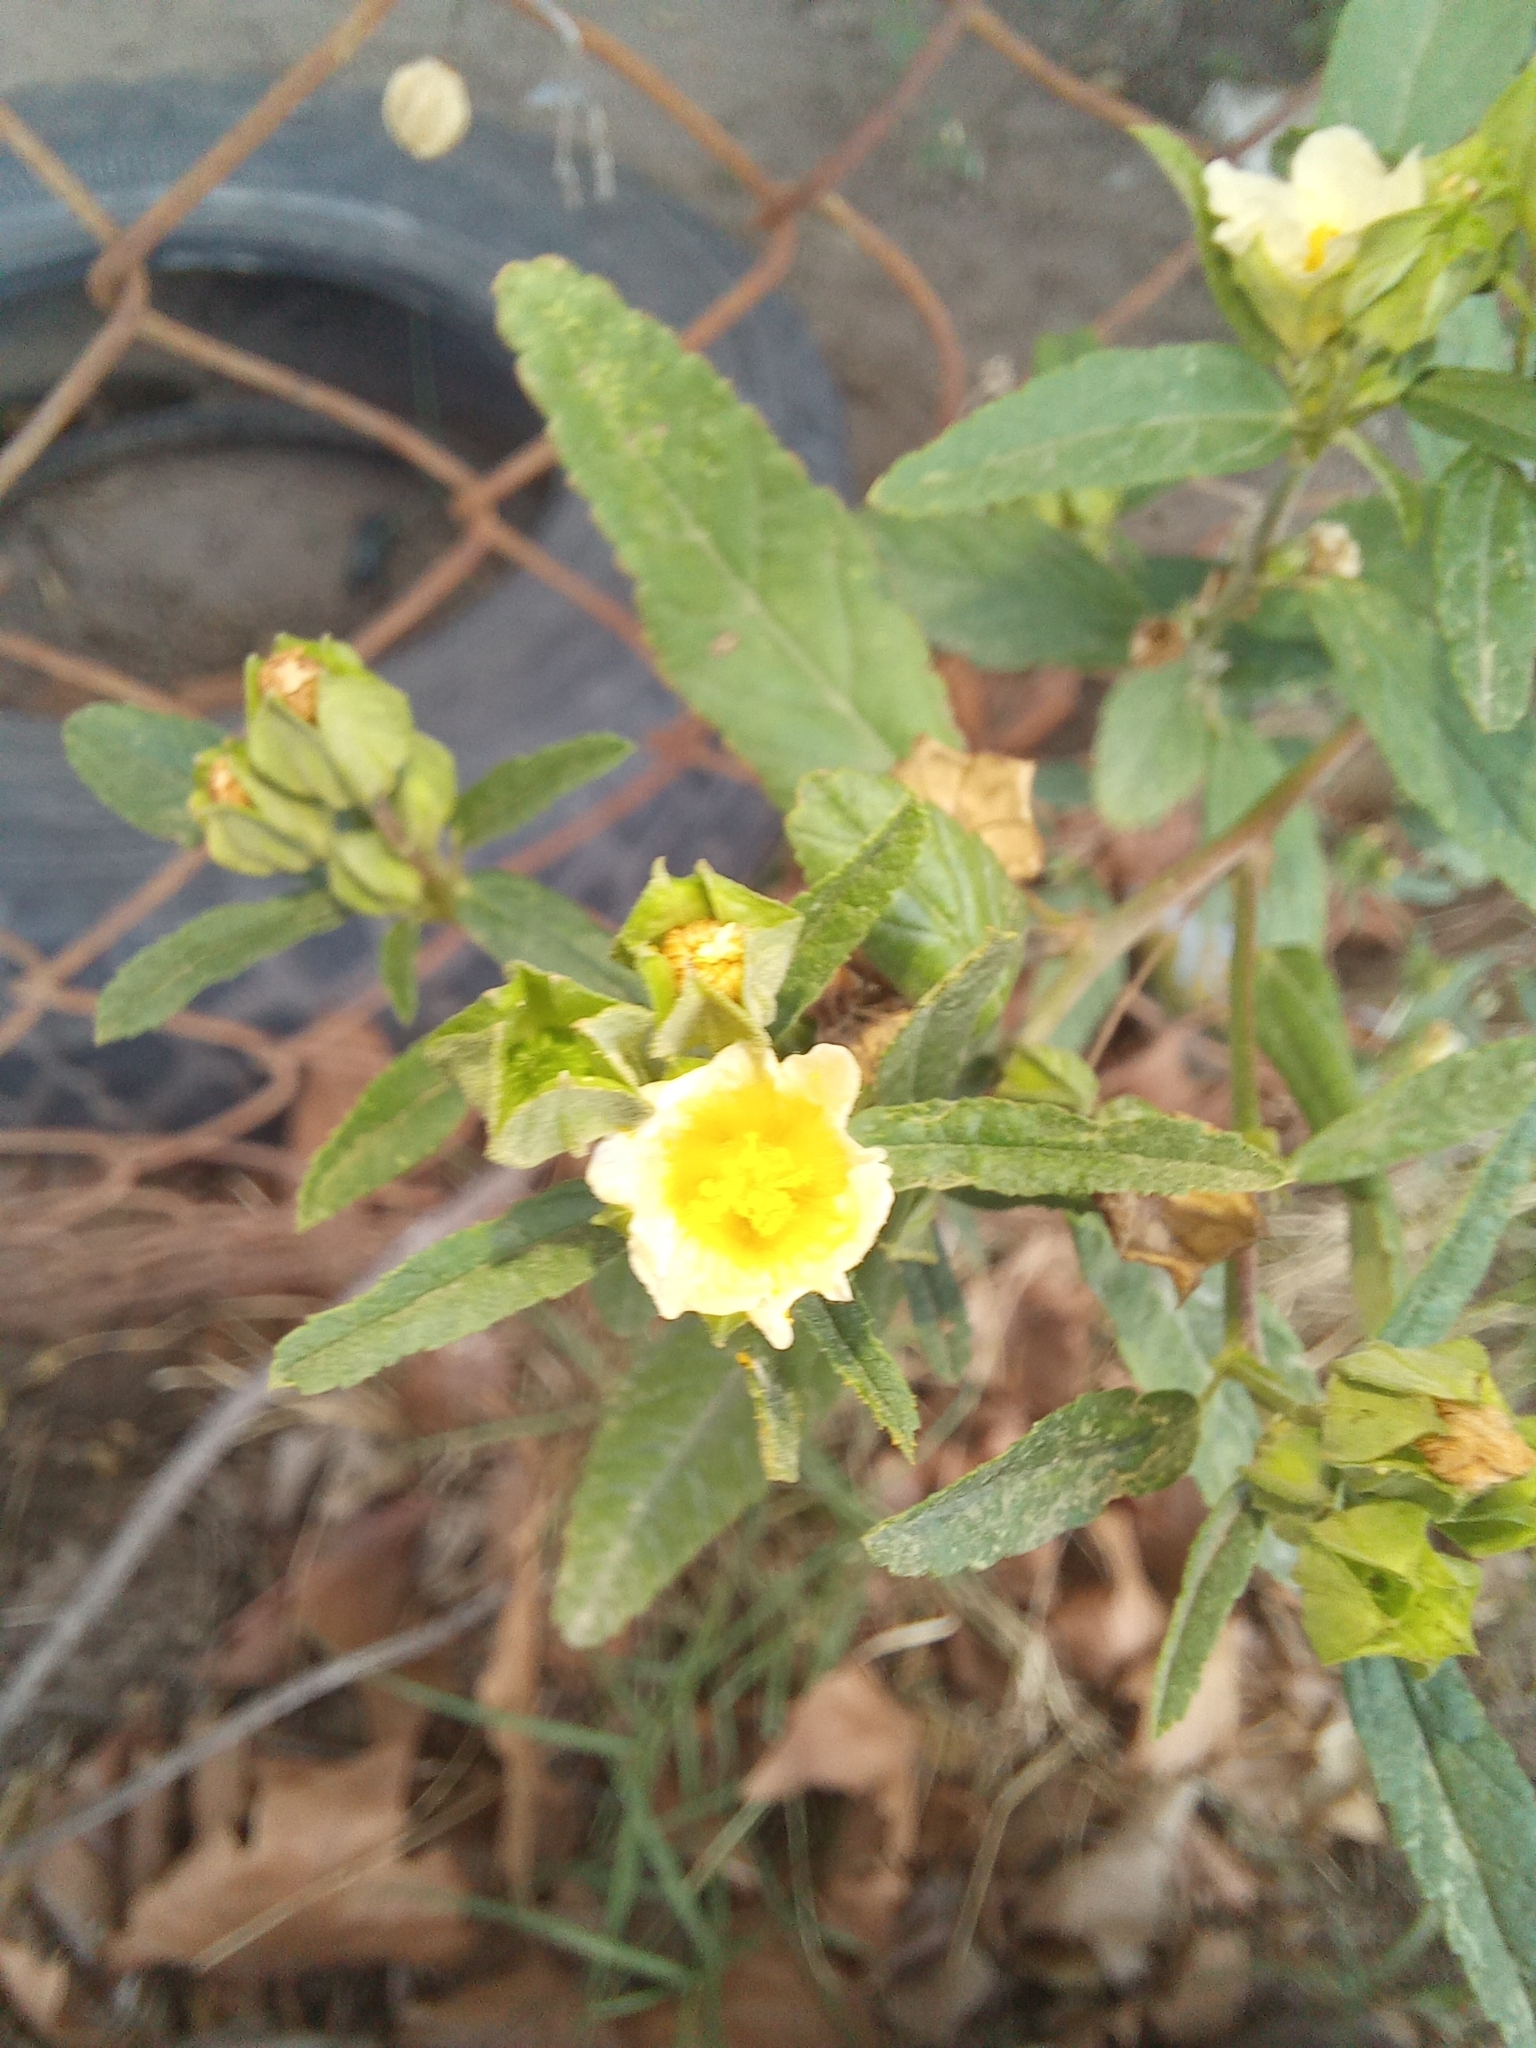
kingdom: Plantae
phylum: Tracheophyta
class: Magnoliopsida
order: Malvales
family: Malvaceae
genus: Sida
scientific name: Sida rhombifolia
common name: Queensland-hemp
